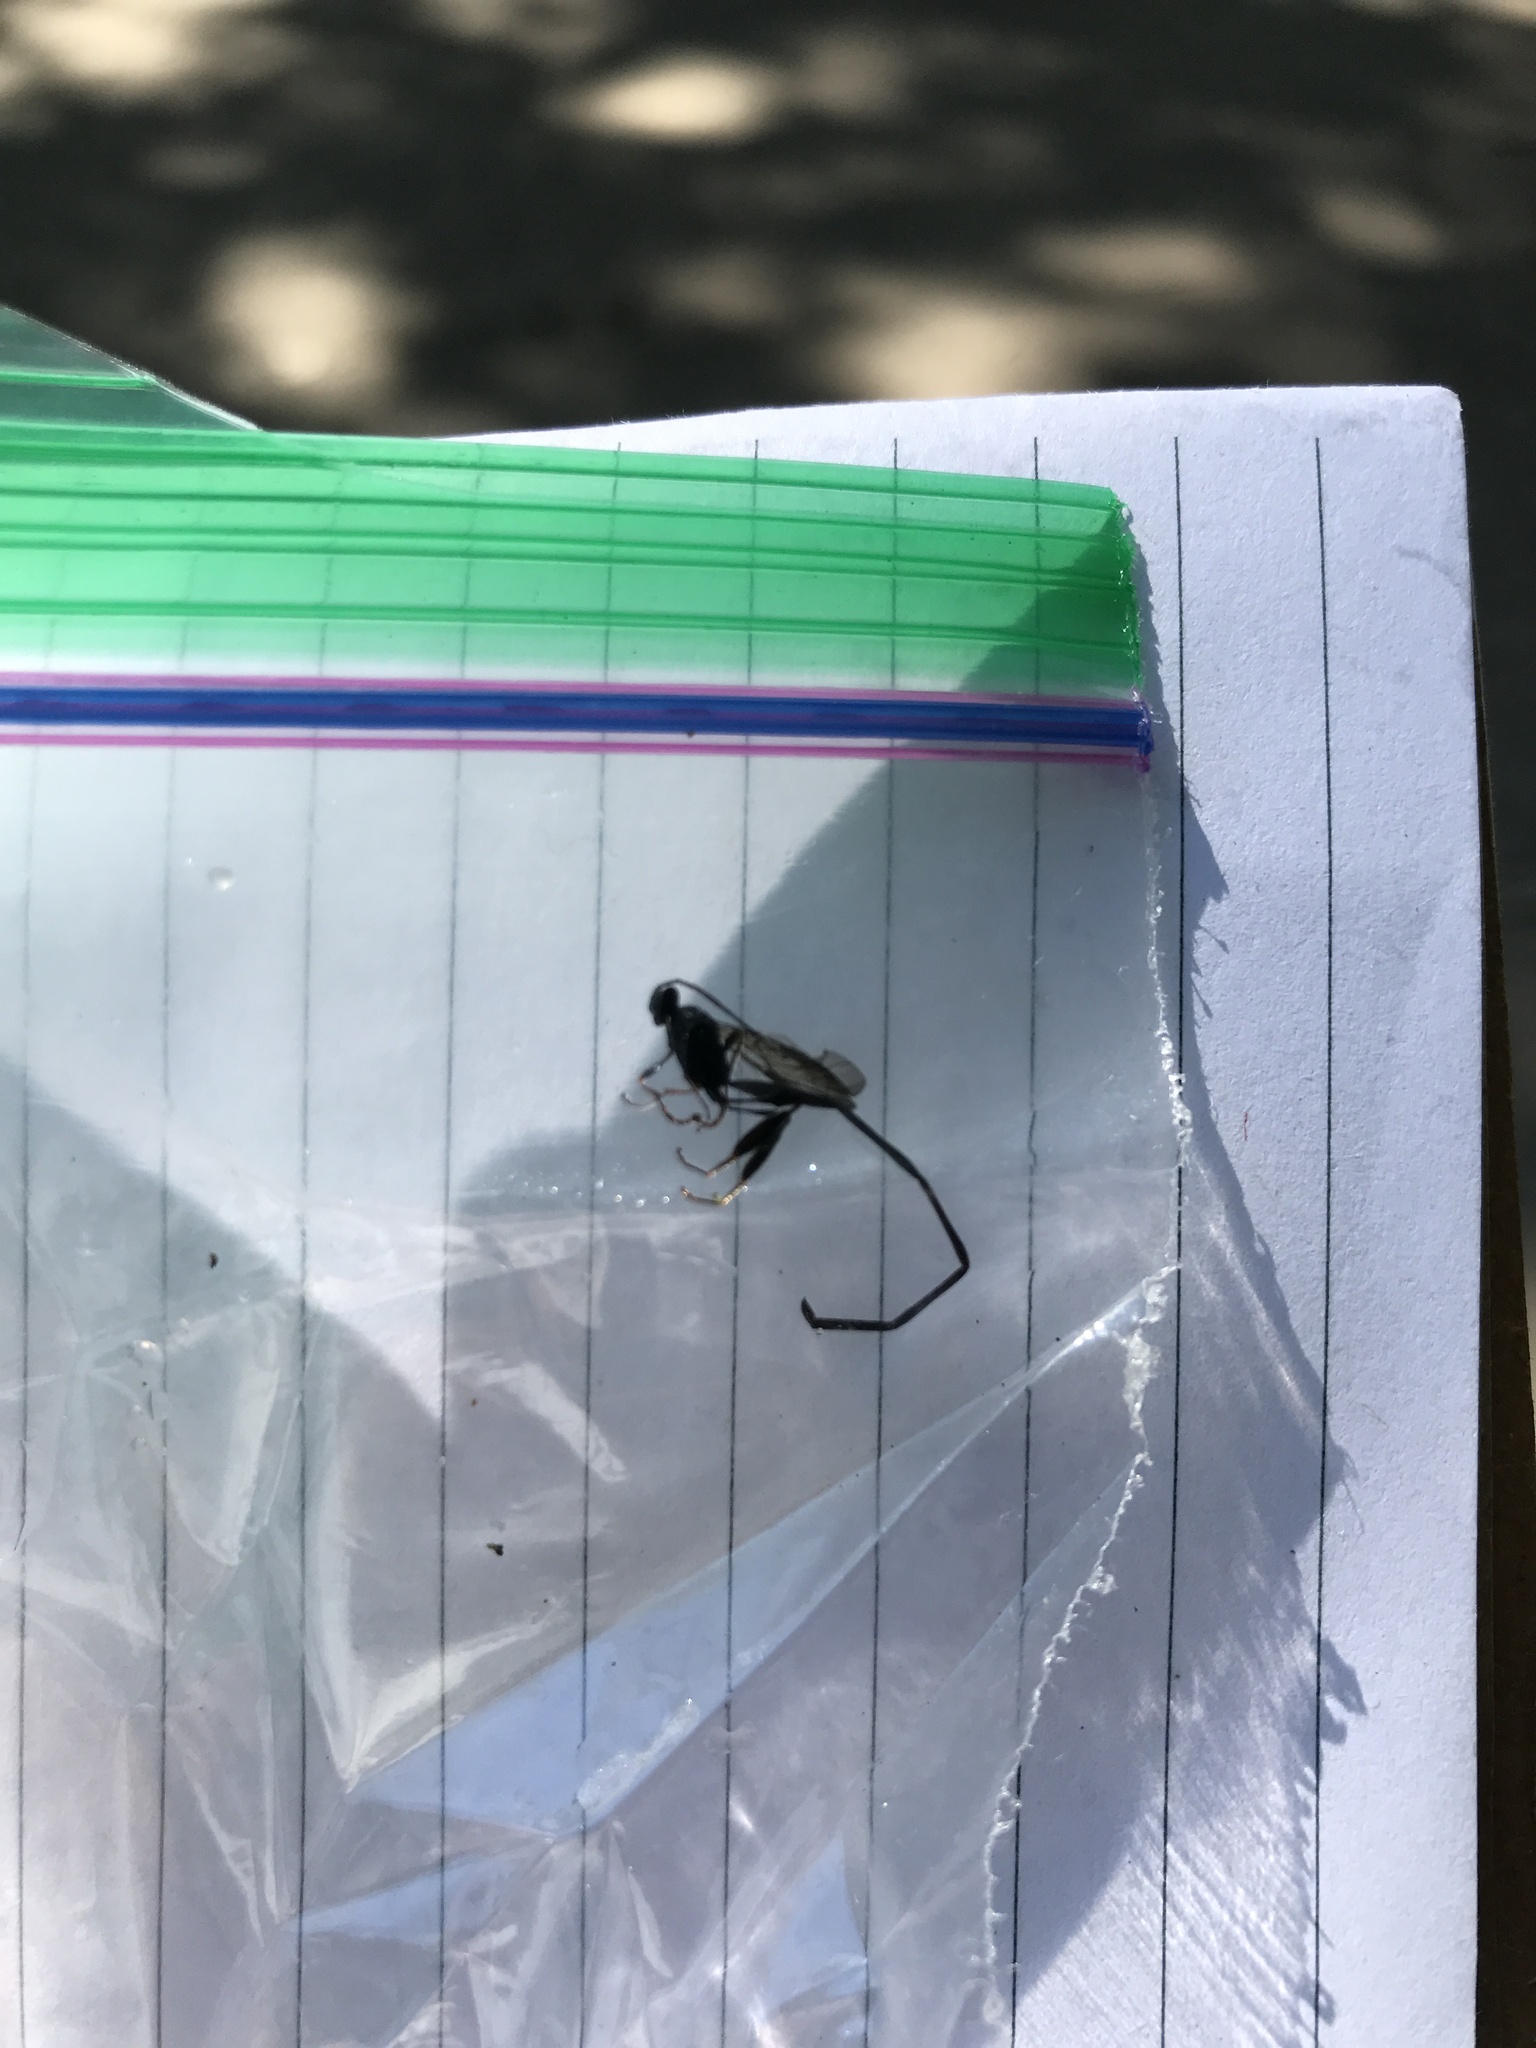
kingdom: Animalia
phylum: Arthropoda
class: Insecta
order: Hymenoptera
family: Pelecinidae
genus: Pelecinus
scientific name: Pelecinus polyturator
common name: American pelecinid wasp
